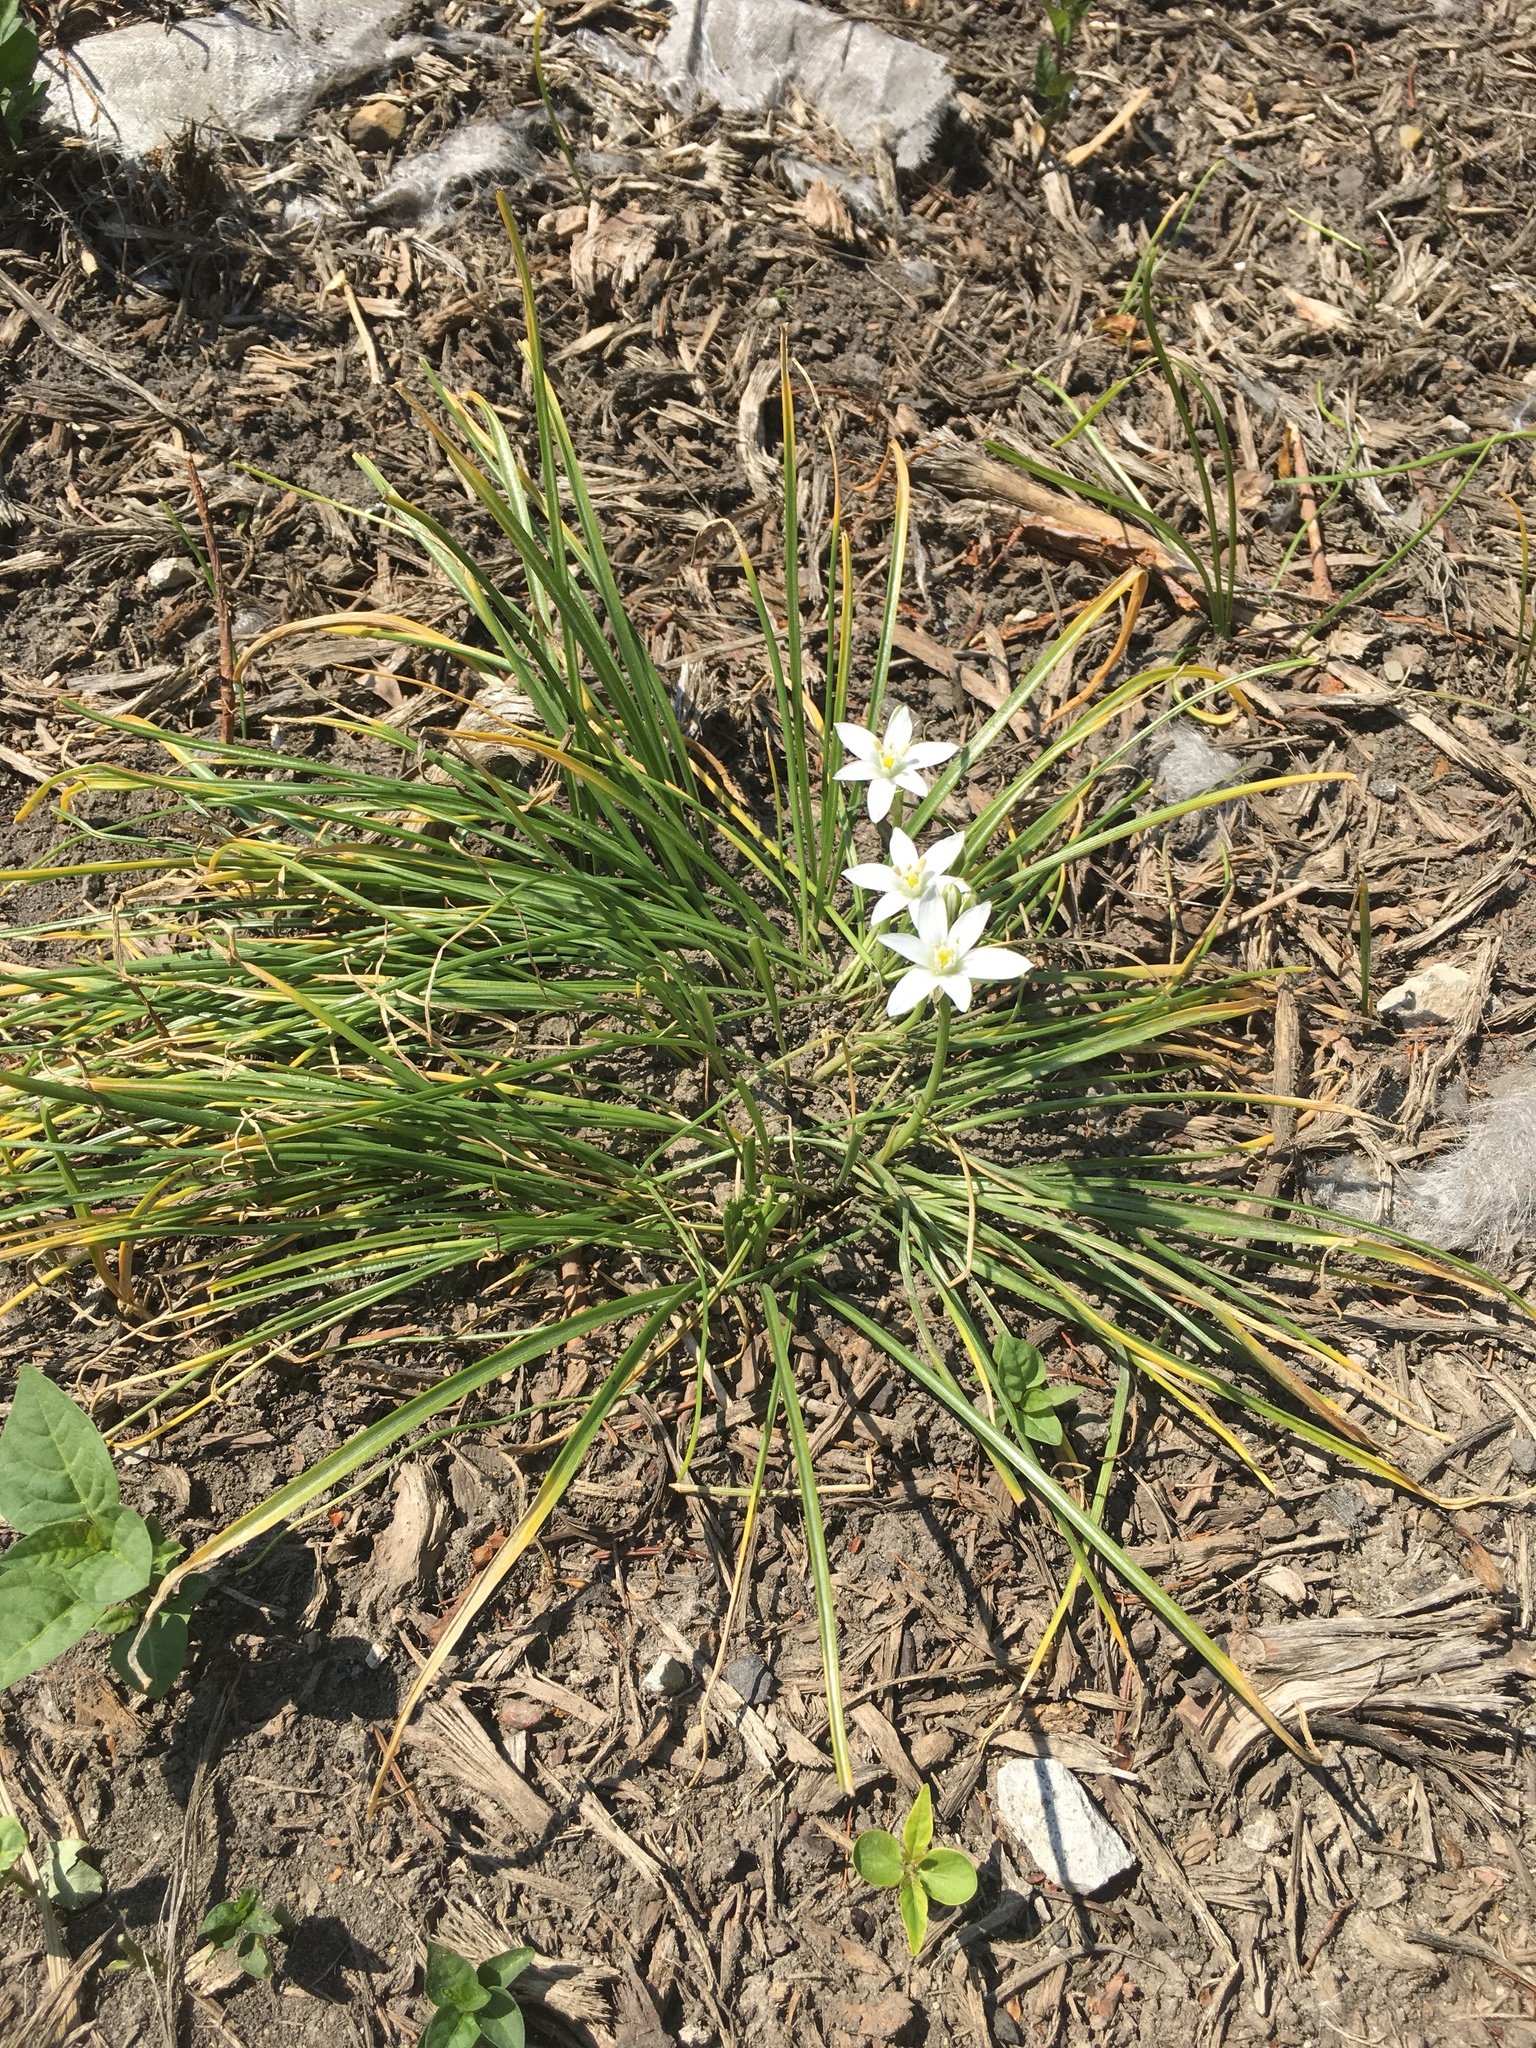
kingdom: Plantae
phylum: Tracheophyta
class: Liliopsida
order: Asparagales
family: Asparagaceae
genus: Ornithogalum
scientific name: Ornithogalum umbellatum
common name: Garden star-of-bethlehem
